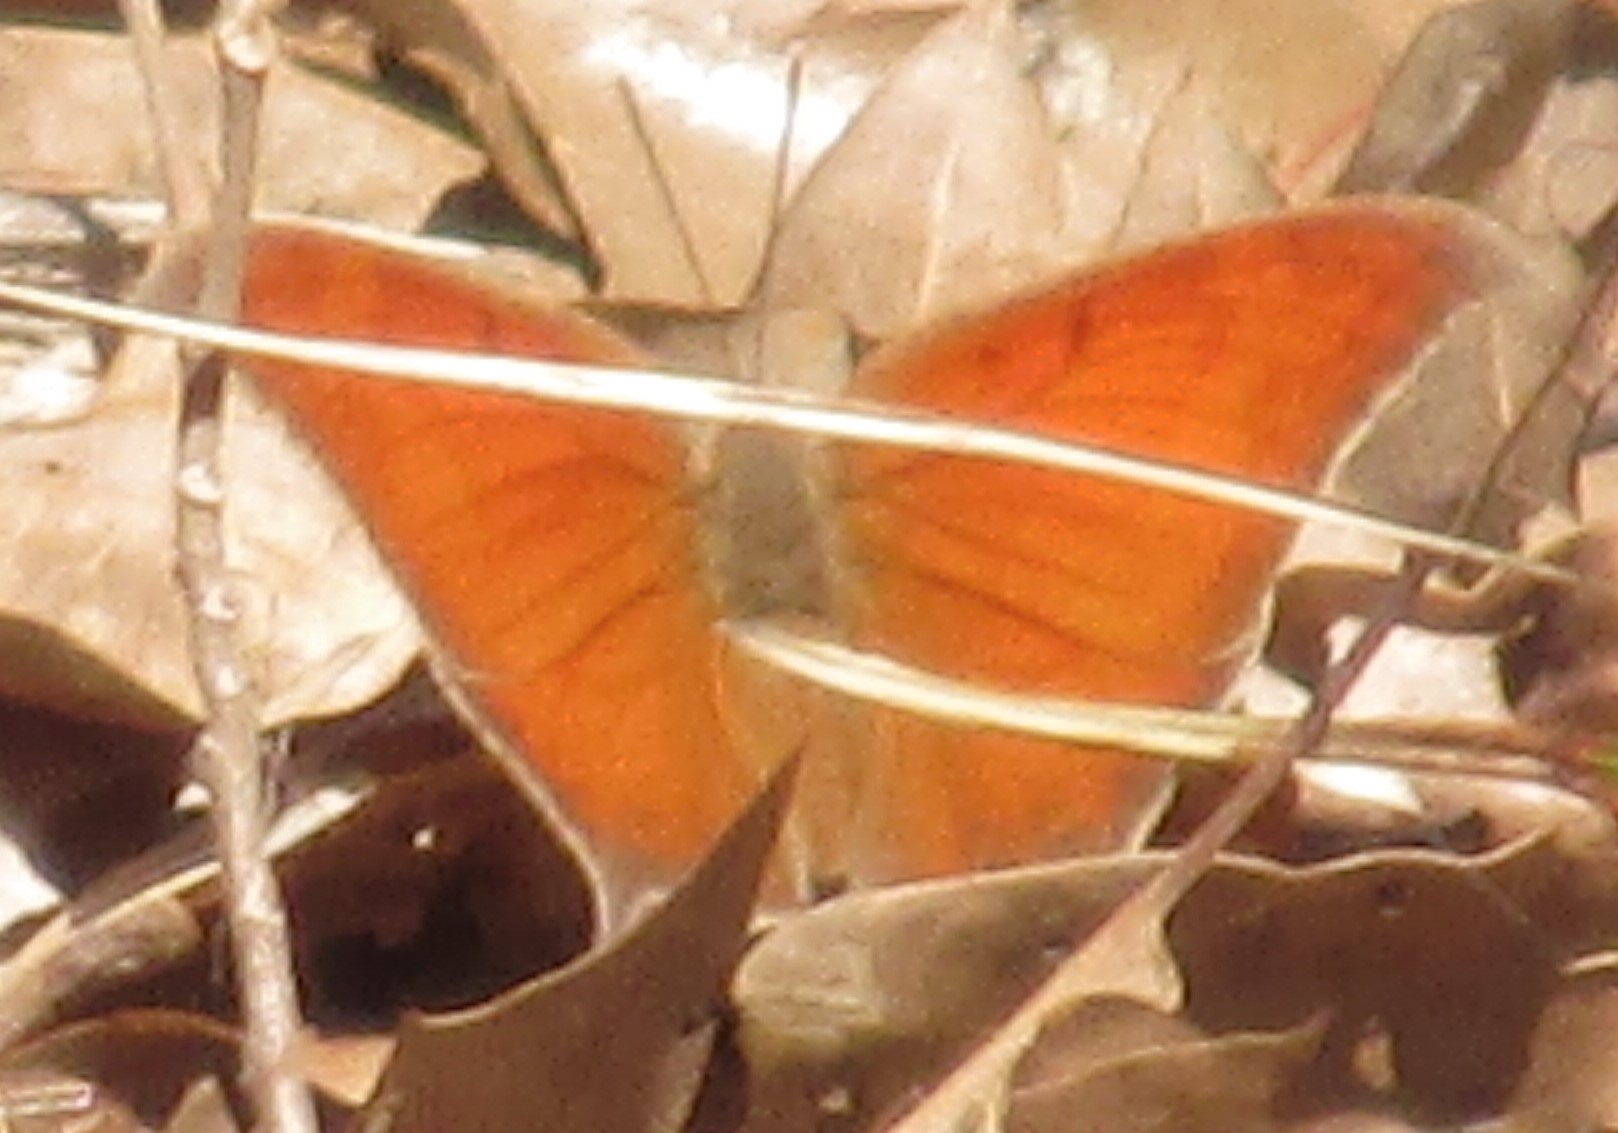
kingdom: Animalia
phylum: Arthropoda
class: Insecta
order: Lepidoptera
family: Nymphalidae
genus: Anaea
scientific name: Anaea andria
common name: Goatweed leafwing
